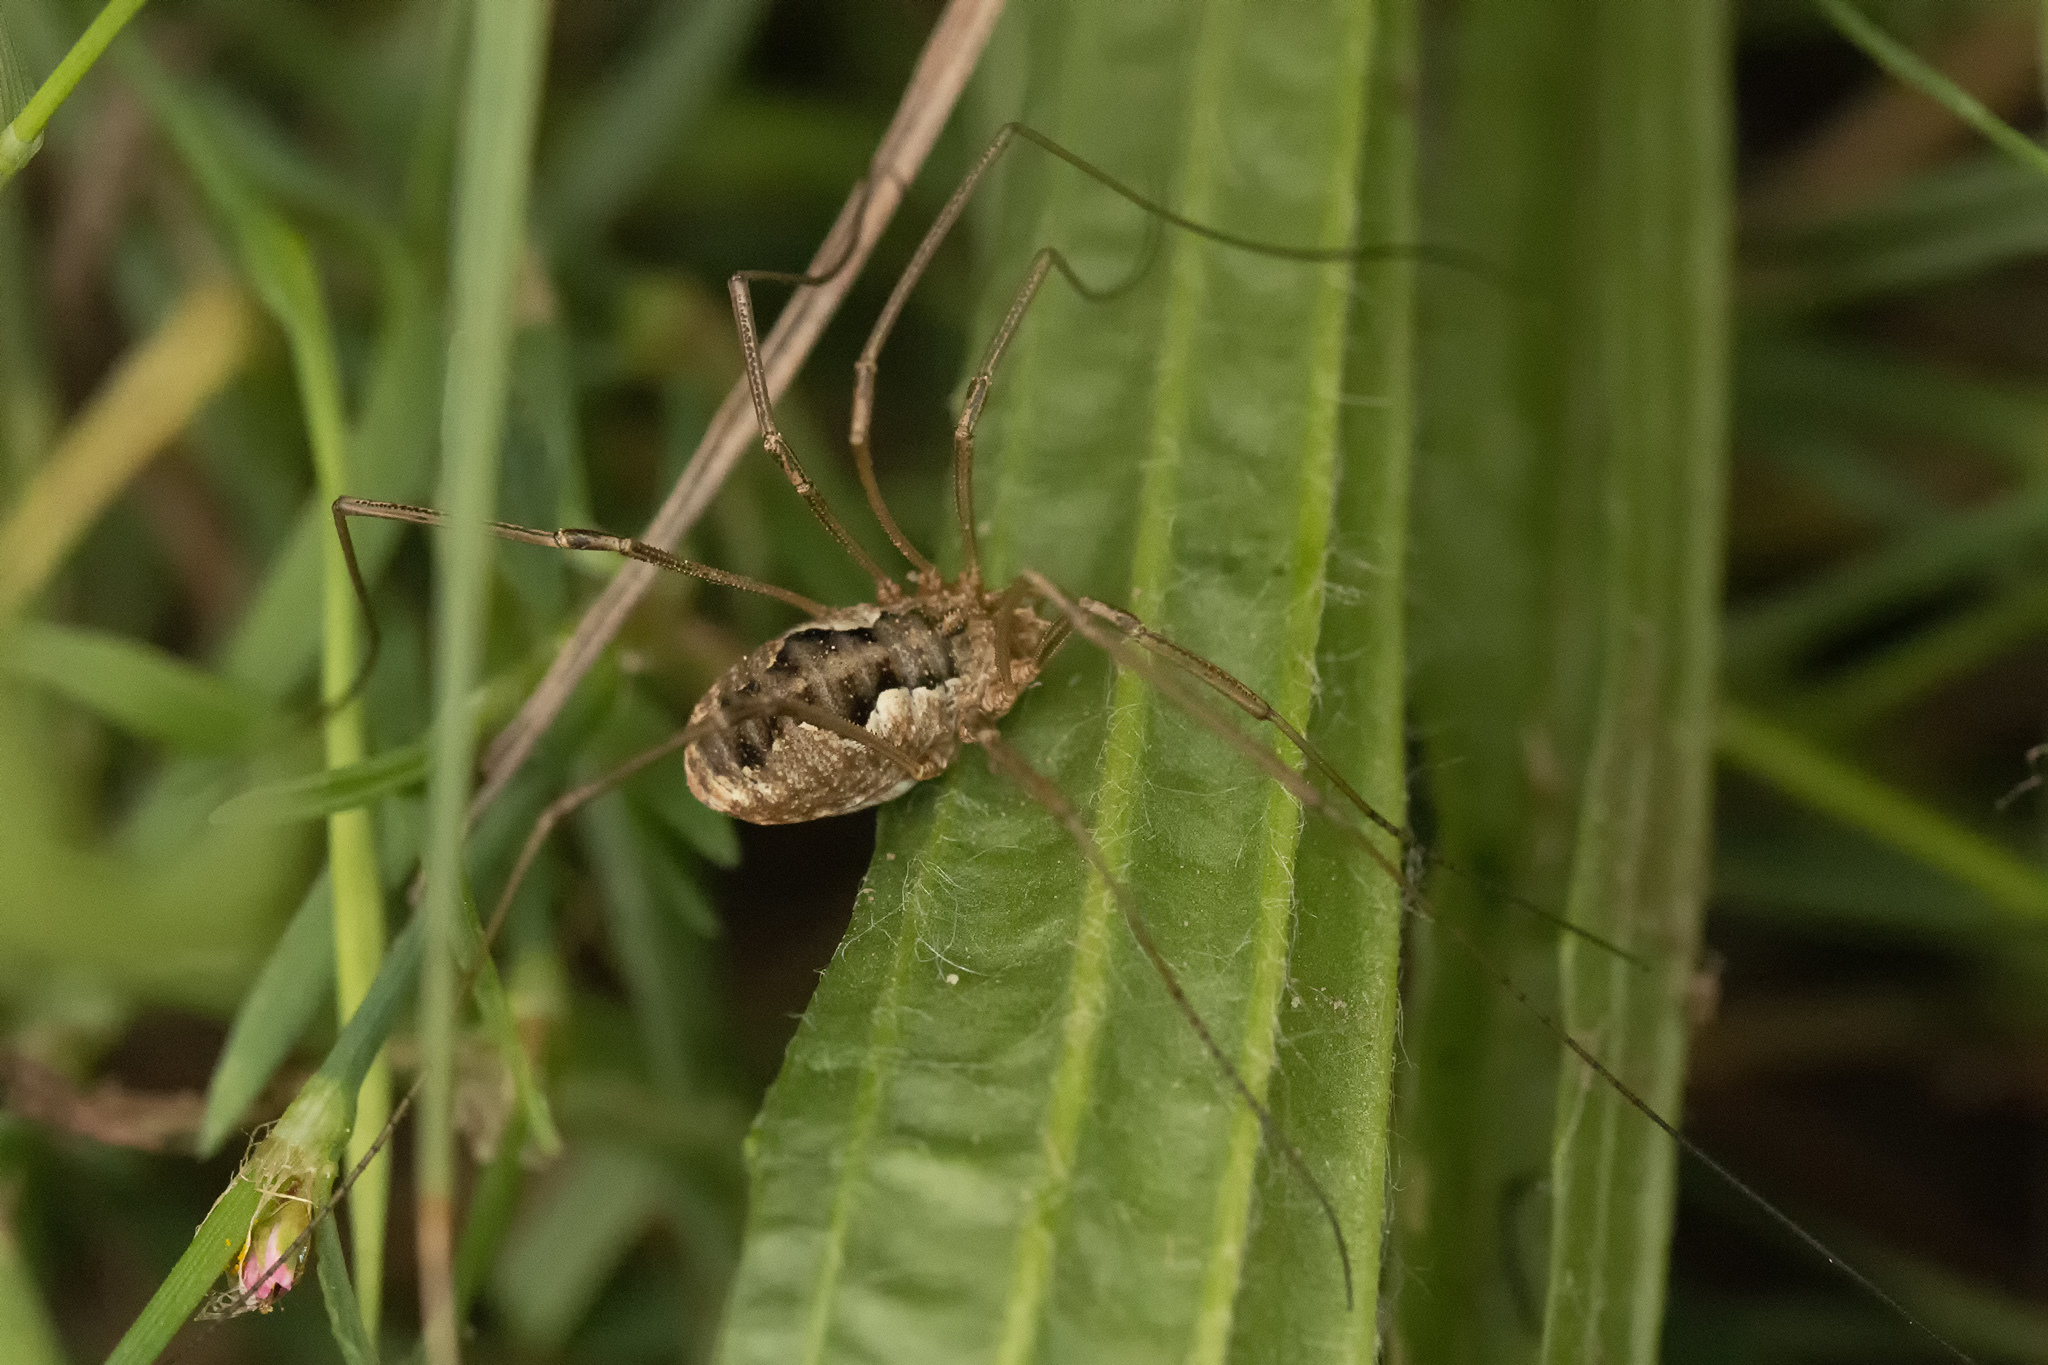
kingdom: Animalia
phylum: Arthropoda
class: Arachnida
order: Opiliones
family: Phalangiidae
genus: Phalangium
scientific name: Phalangium opilio
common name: Daddy longleg
